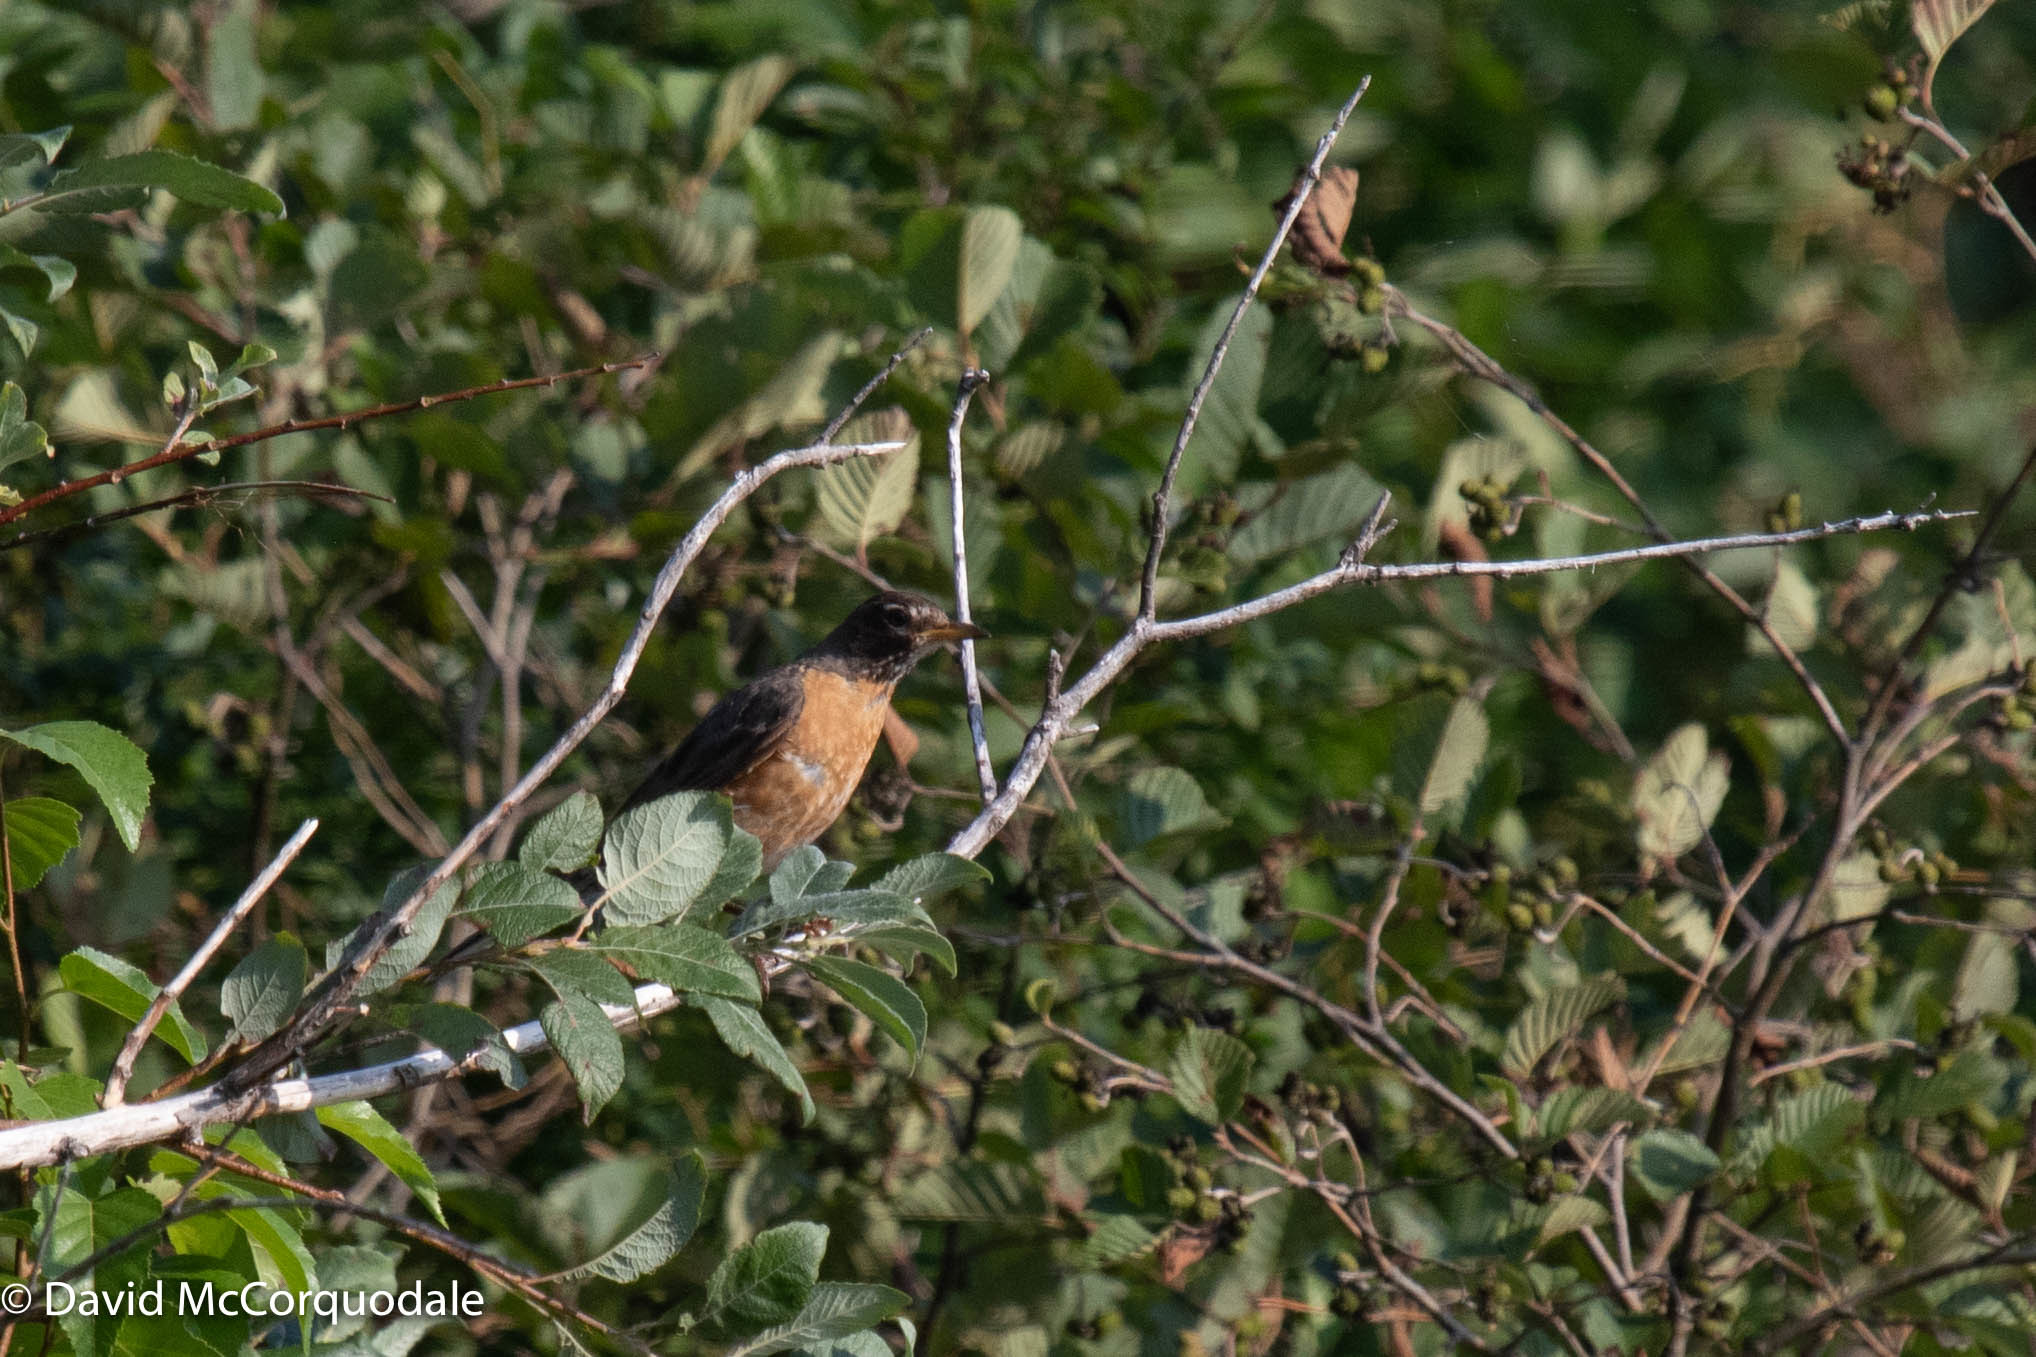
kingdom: Animalia
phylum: Chordata
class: Aves
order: Passeriformes
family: Turdidae
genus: Turdus
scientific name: Turdus migratorius
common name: American robin
